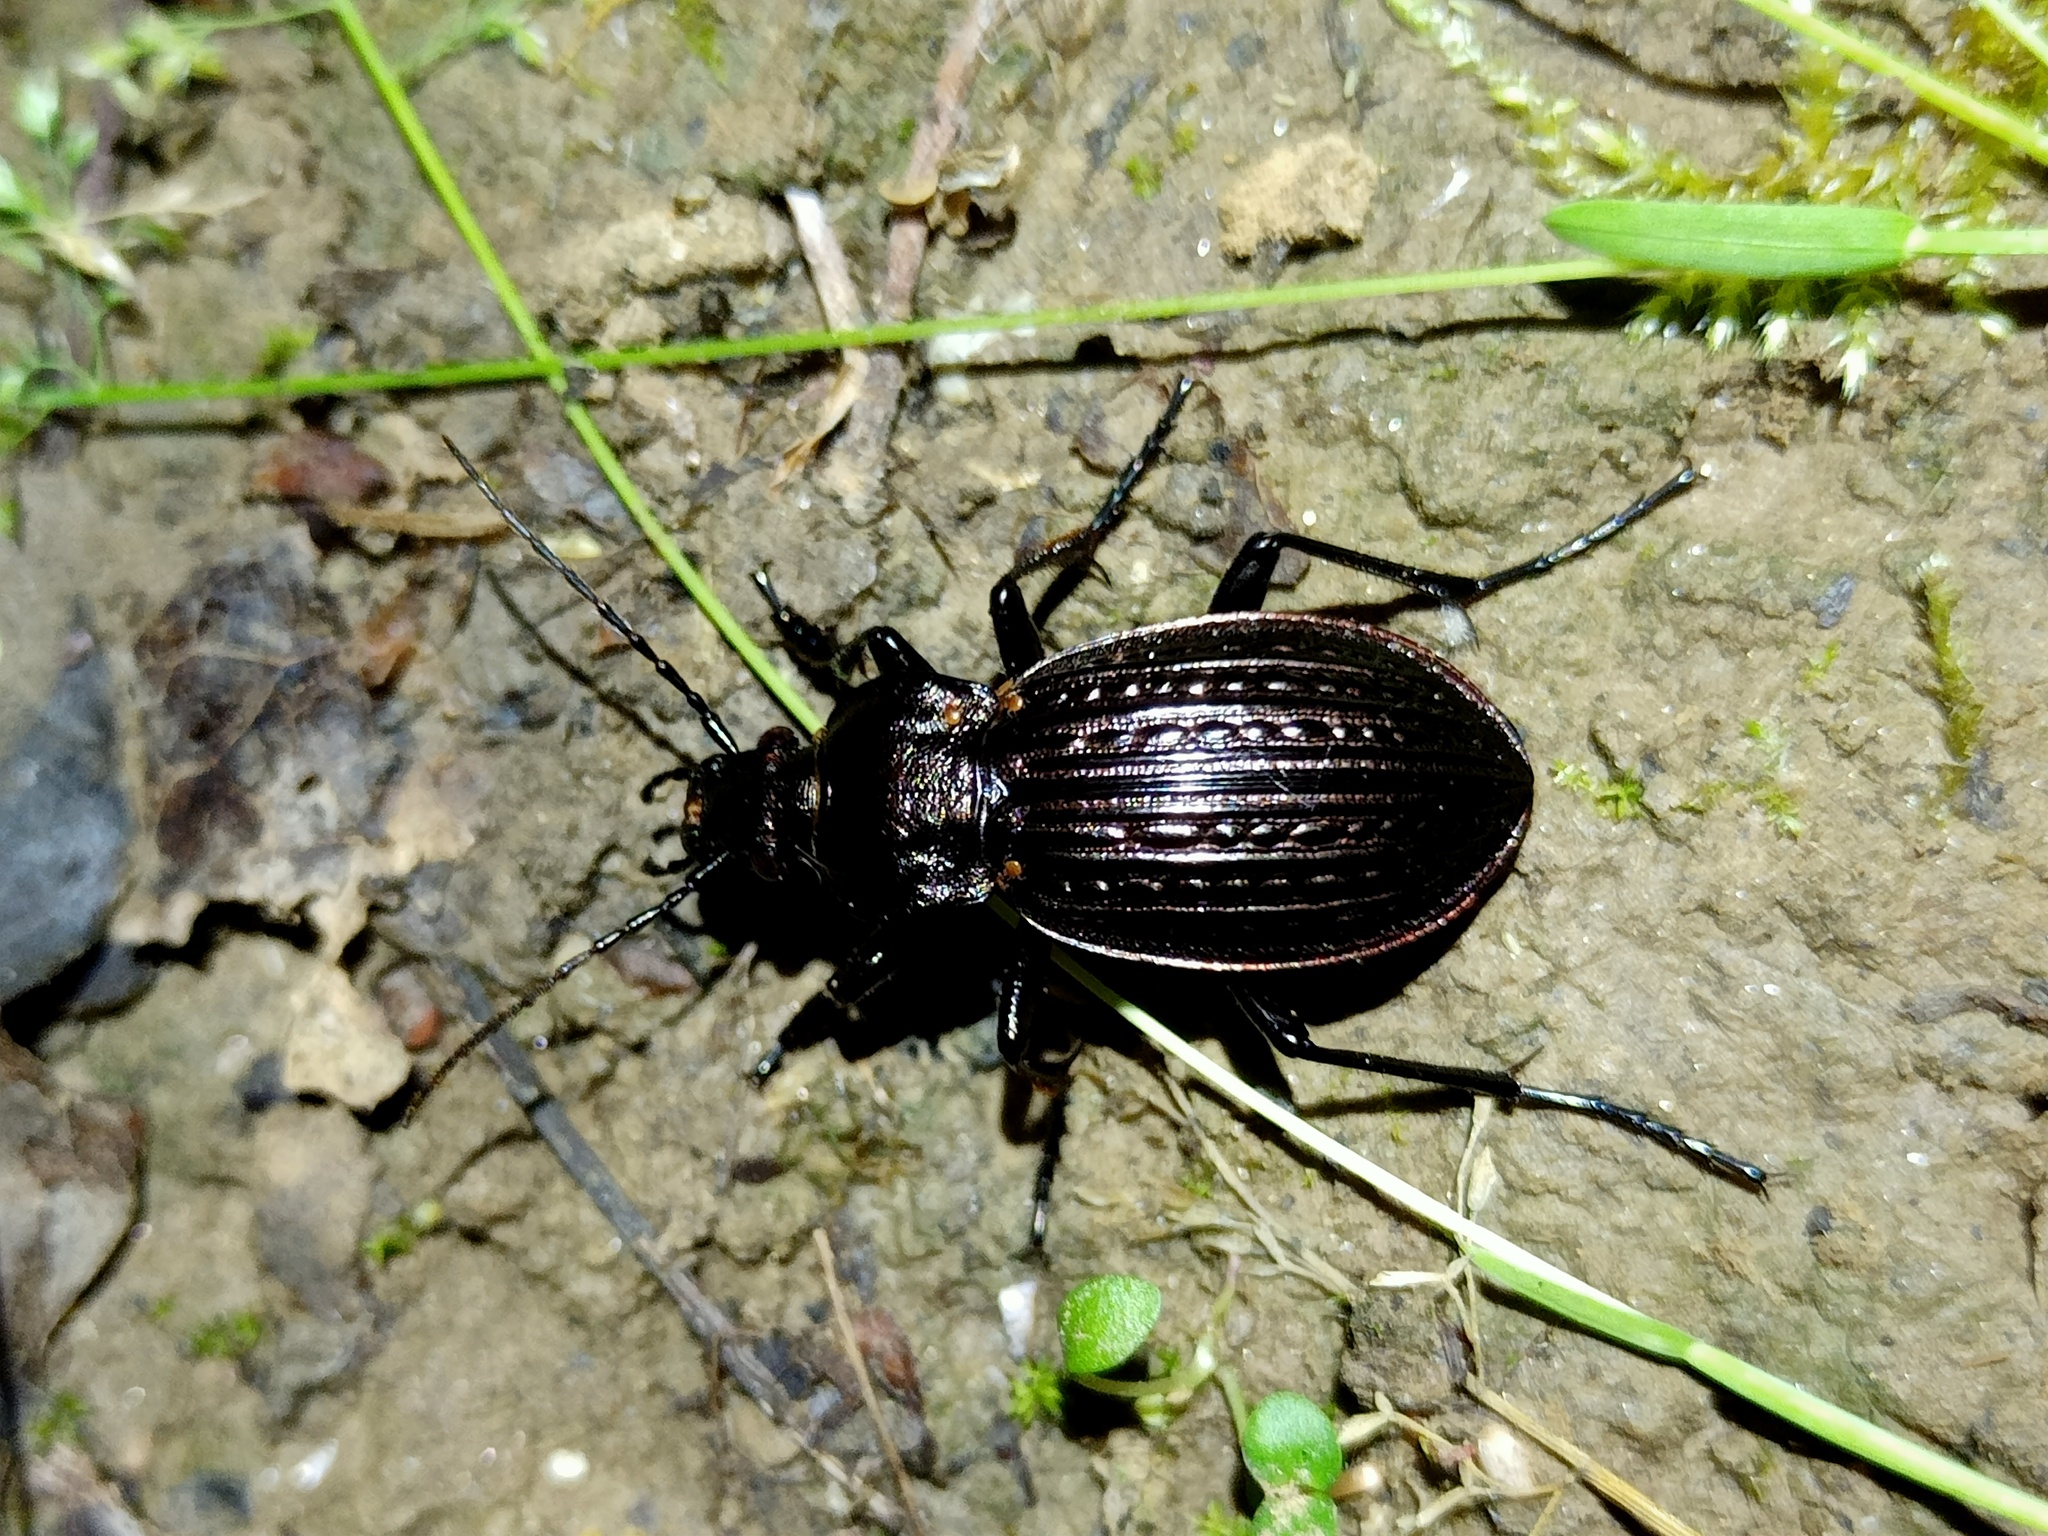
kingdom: Animalia
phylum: Arthropoda
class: Insecta
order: Coleoptera
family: Carabidae
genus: Carabus
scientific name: Carabus ulrichii
